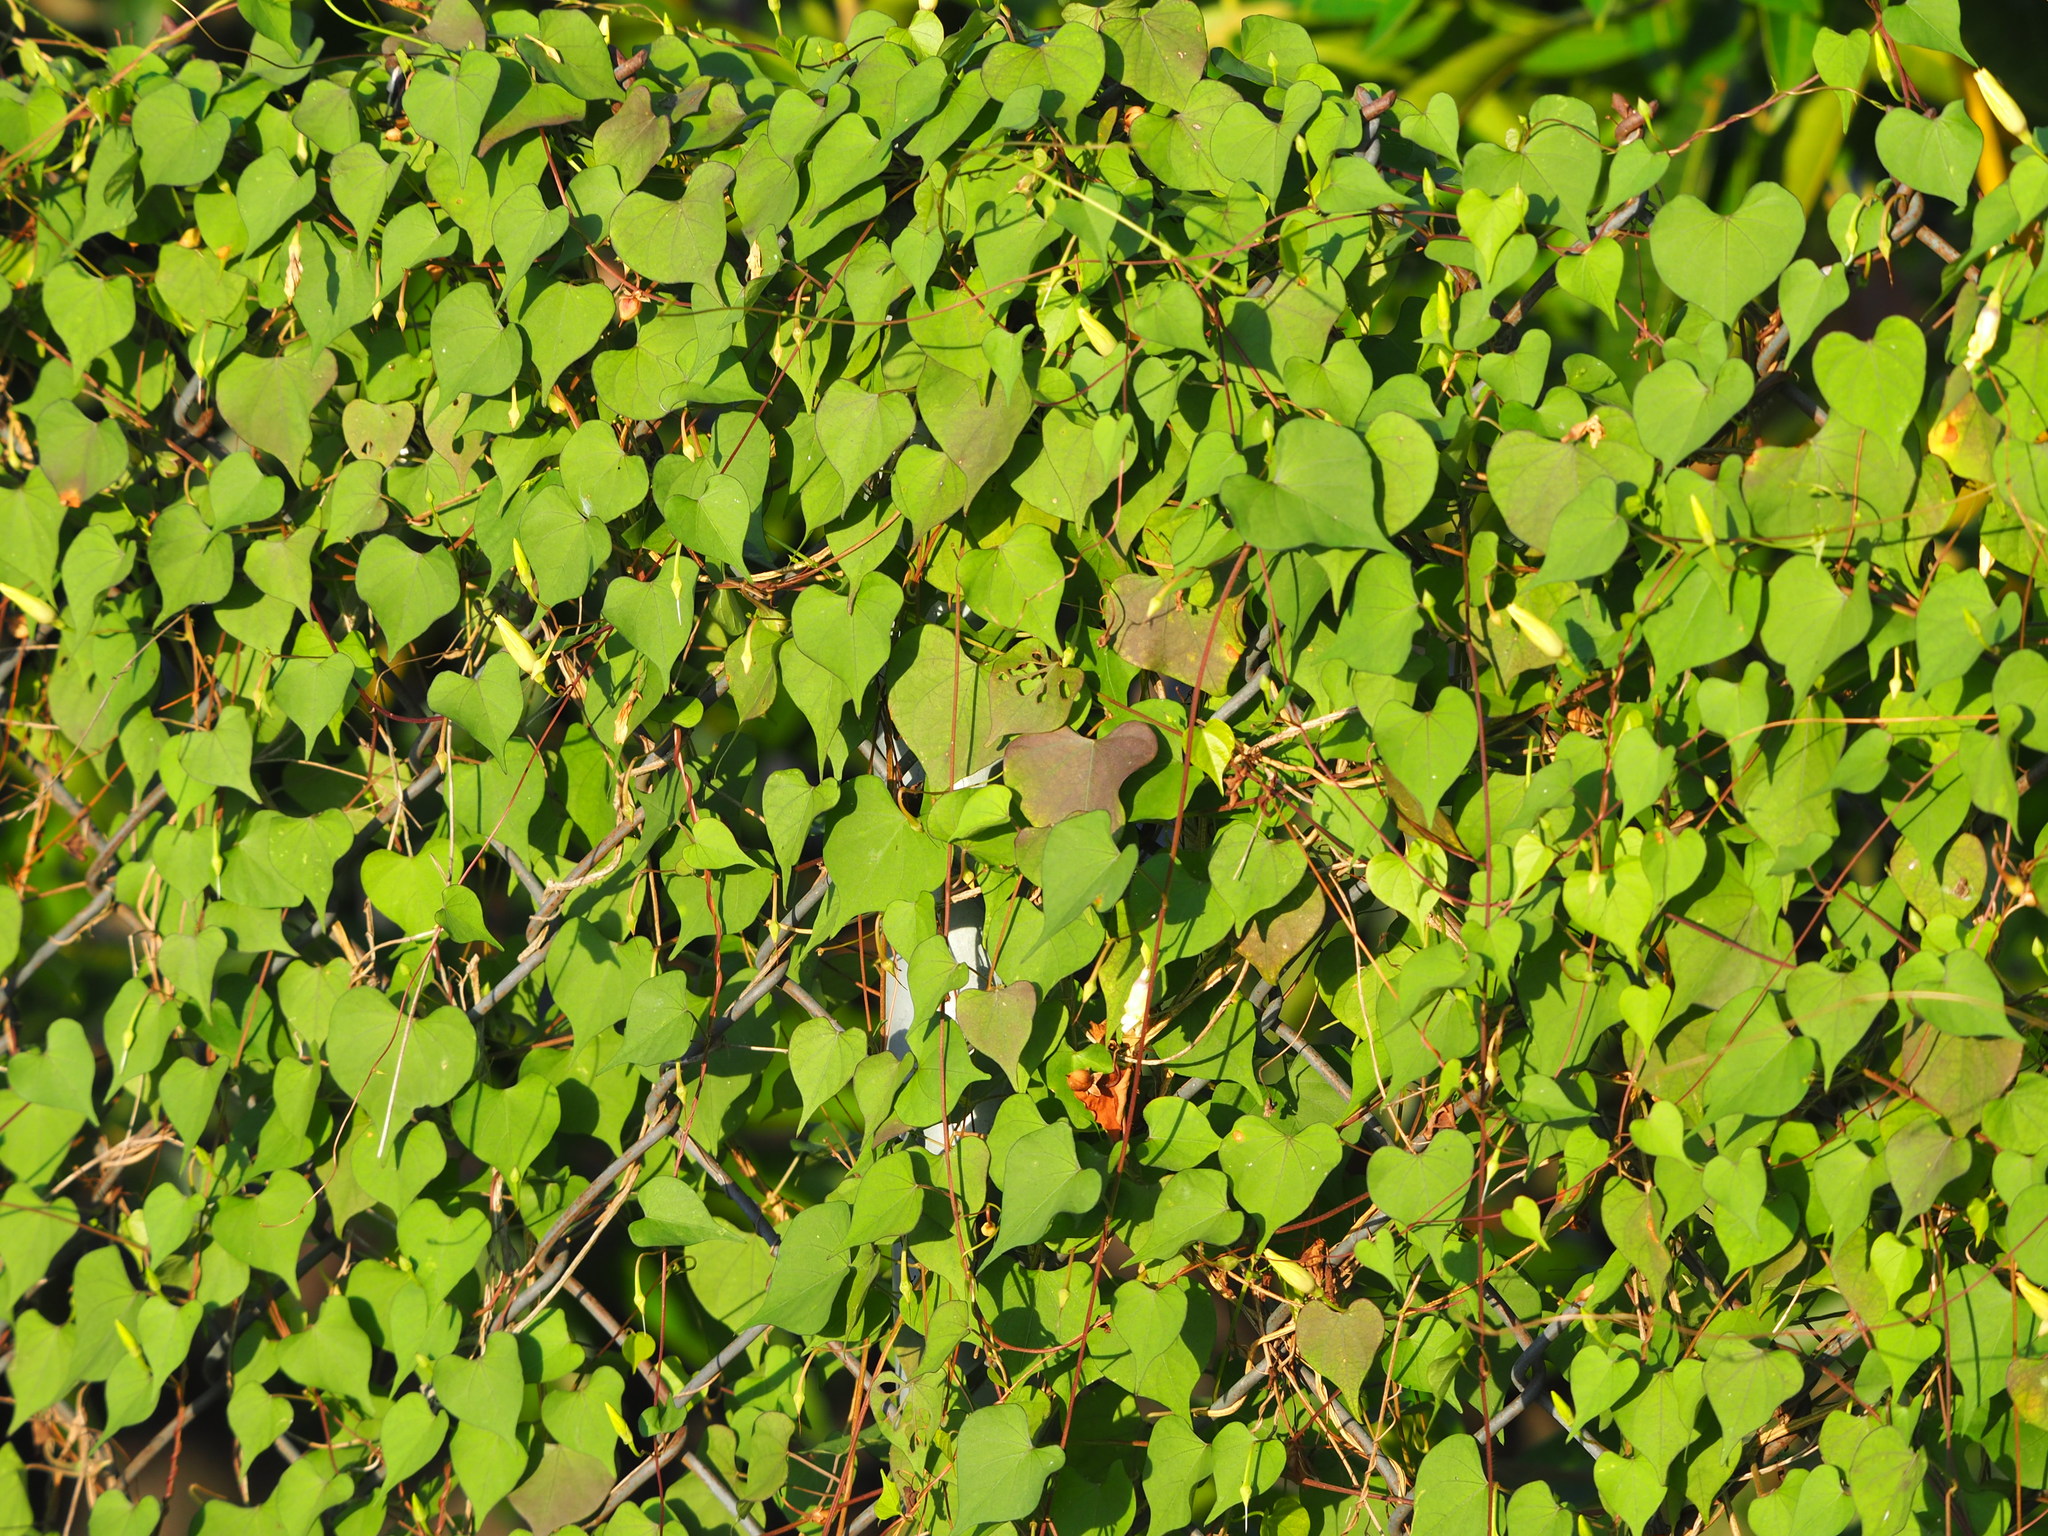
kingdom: Plantae
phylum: Tracheophyta
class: Magnoliopsida
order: Solanales
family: Convolvulaceae
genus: Ipomoea
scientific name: Ipomoea obscura
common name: Obscure morning-glory
